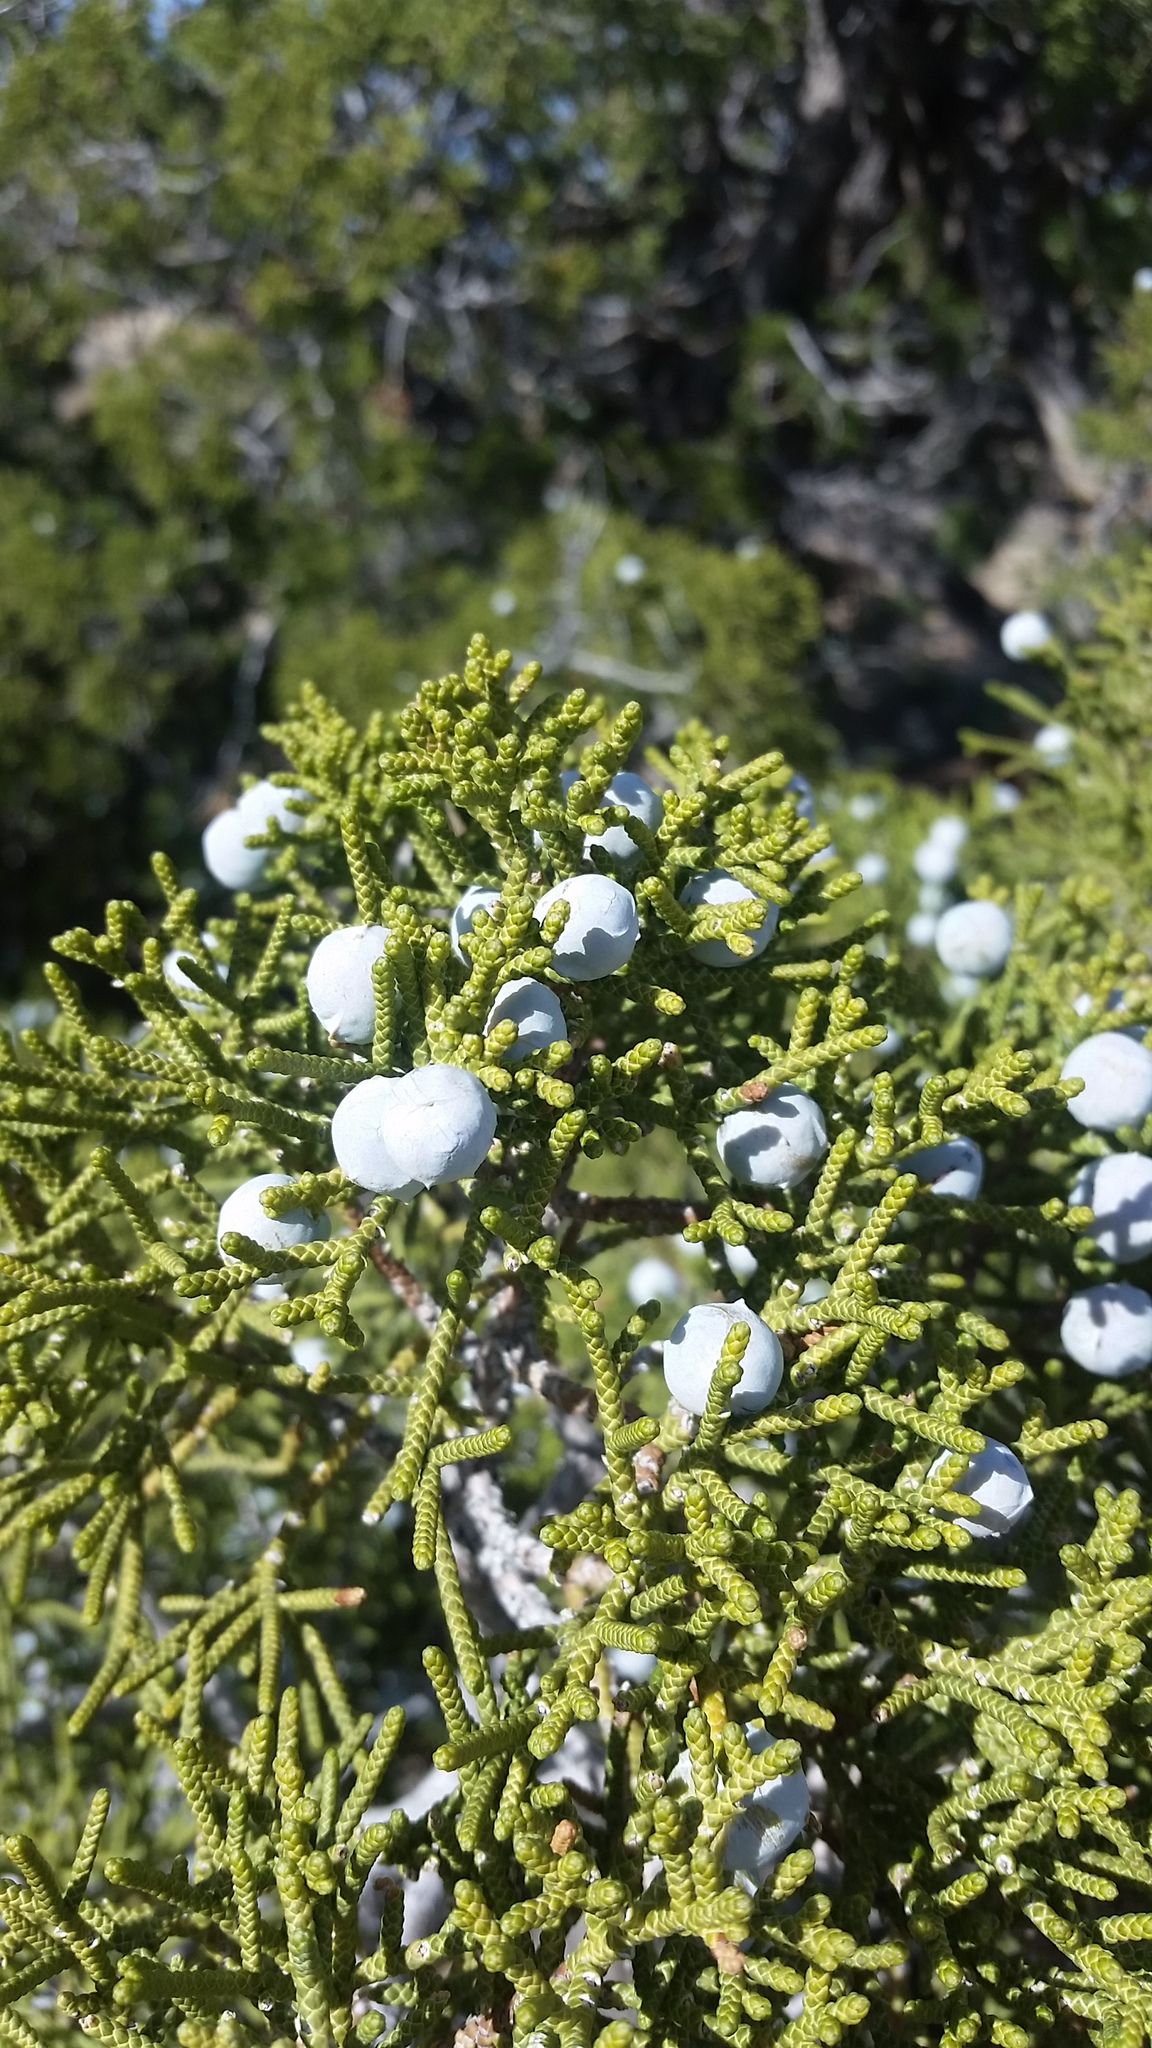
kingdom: Plantae
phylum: Tracheophyta
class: Pinopsida
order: Pinales
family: Cupressaceae
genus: Juniperus
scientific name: Juniperus californica
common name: California juniper
